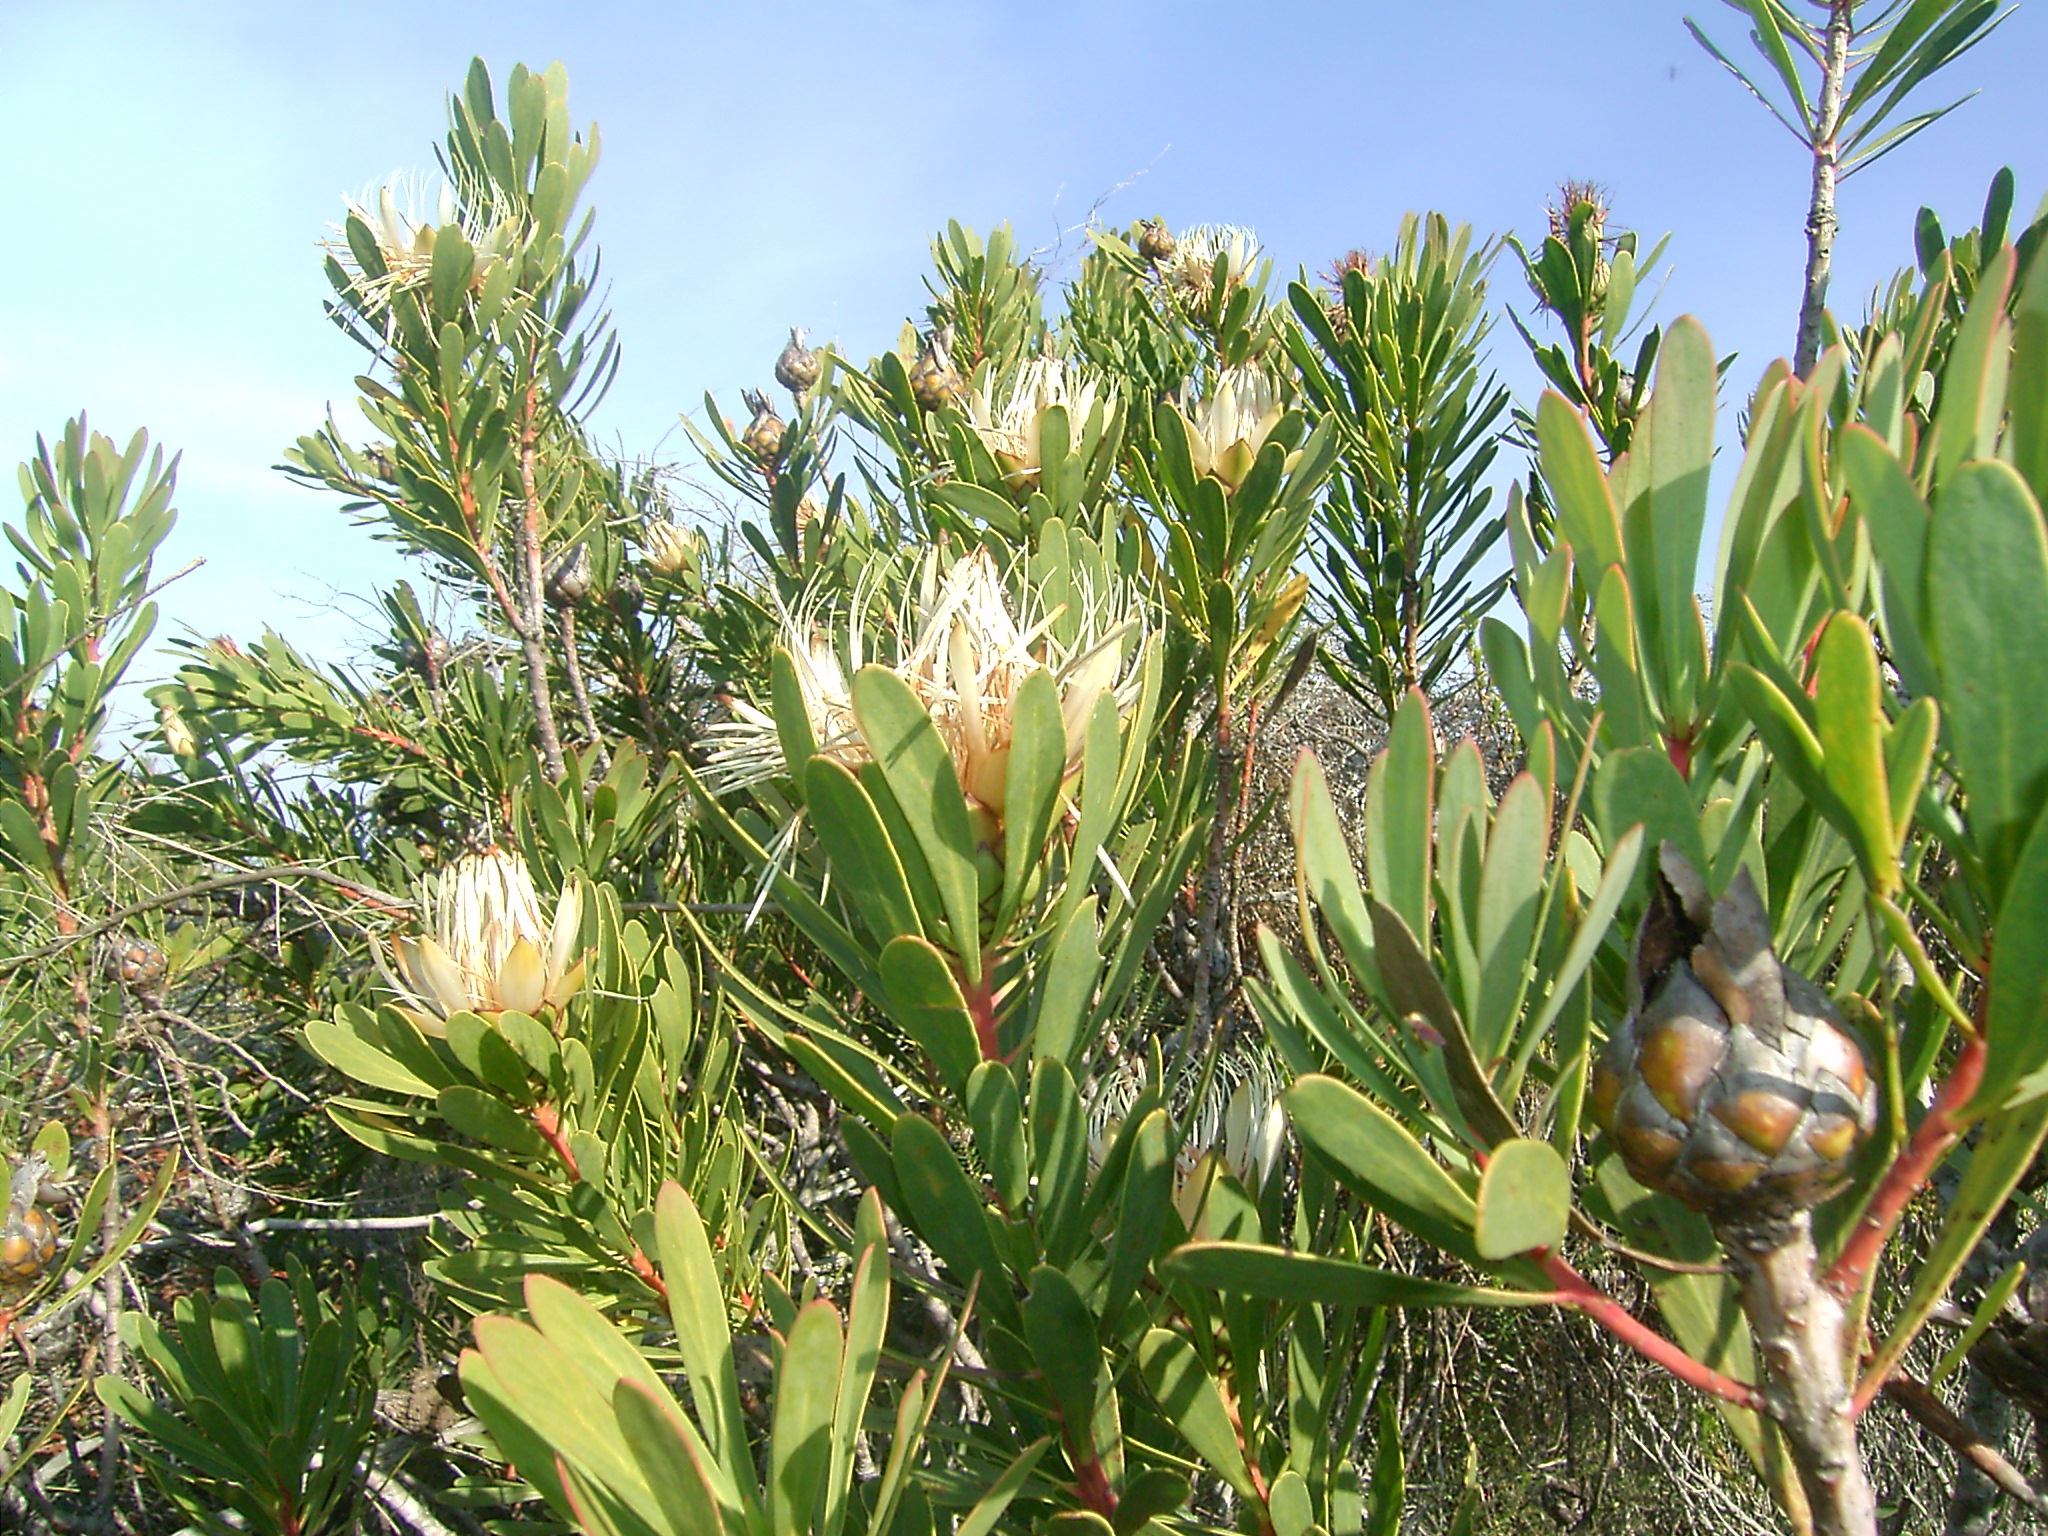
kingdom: Plantae
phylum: Tracheophyta
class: Magnoliopsida
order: Proteales
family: Proteaceae
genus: Protea
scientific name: Protea lanceolata
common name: Lance-leaved protea
